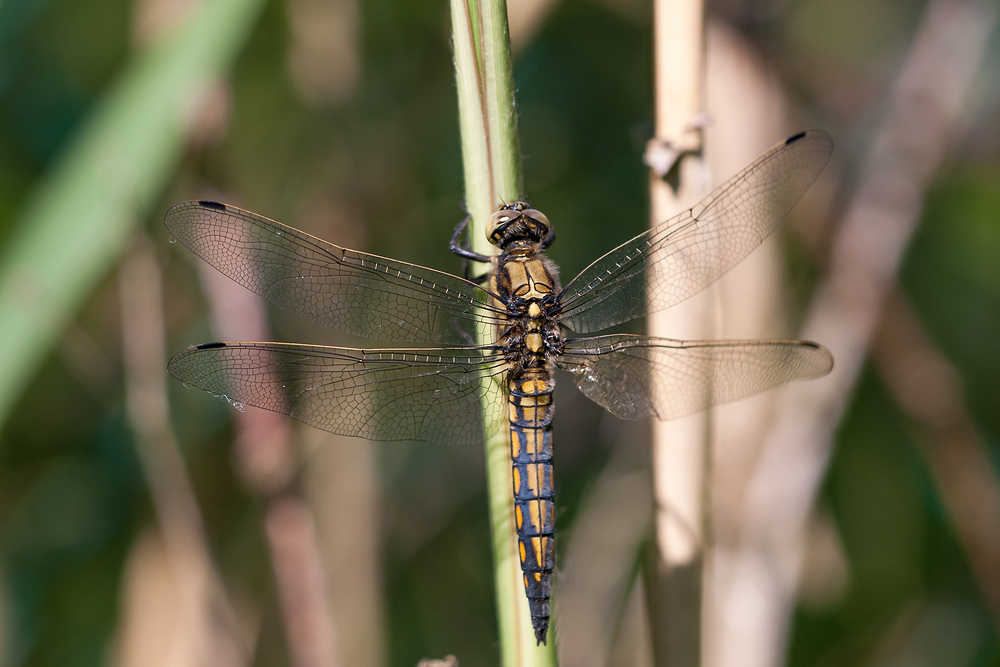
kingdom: Animalia
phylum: Arthropoda
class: Insecta
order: Odonata
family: Libellulidae
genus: Orthetrum
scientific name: Orthetrum cancellatum
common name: Black-tailed skimmer
